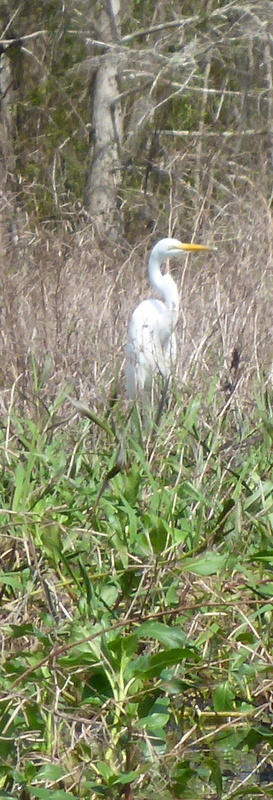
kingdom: Animalia
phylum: Chordata
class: Aves
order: Pelecaniformes
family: Ardeidae
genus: Ardea
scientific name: Ardea alba
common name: Great egret
